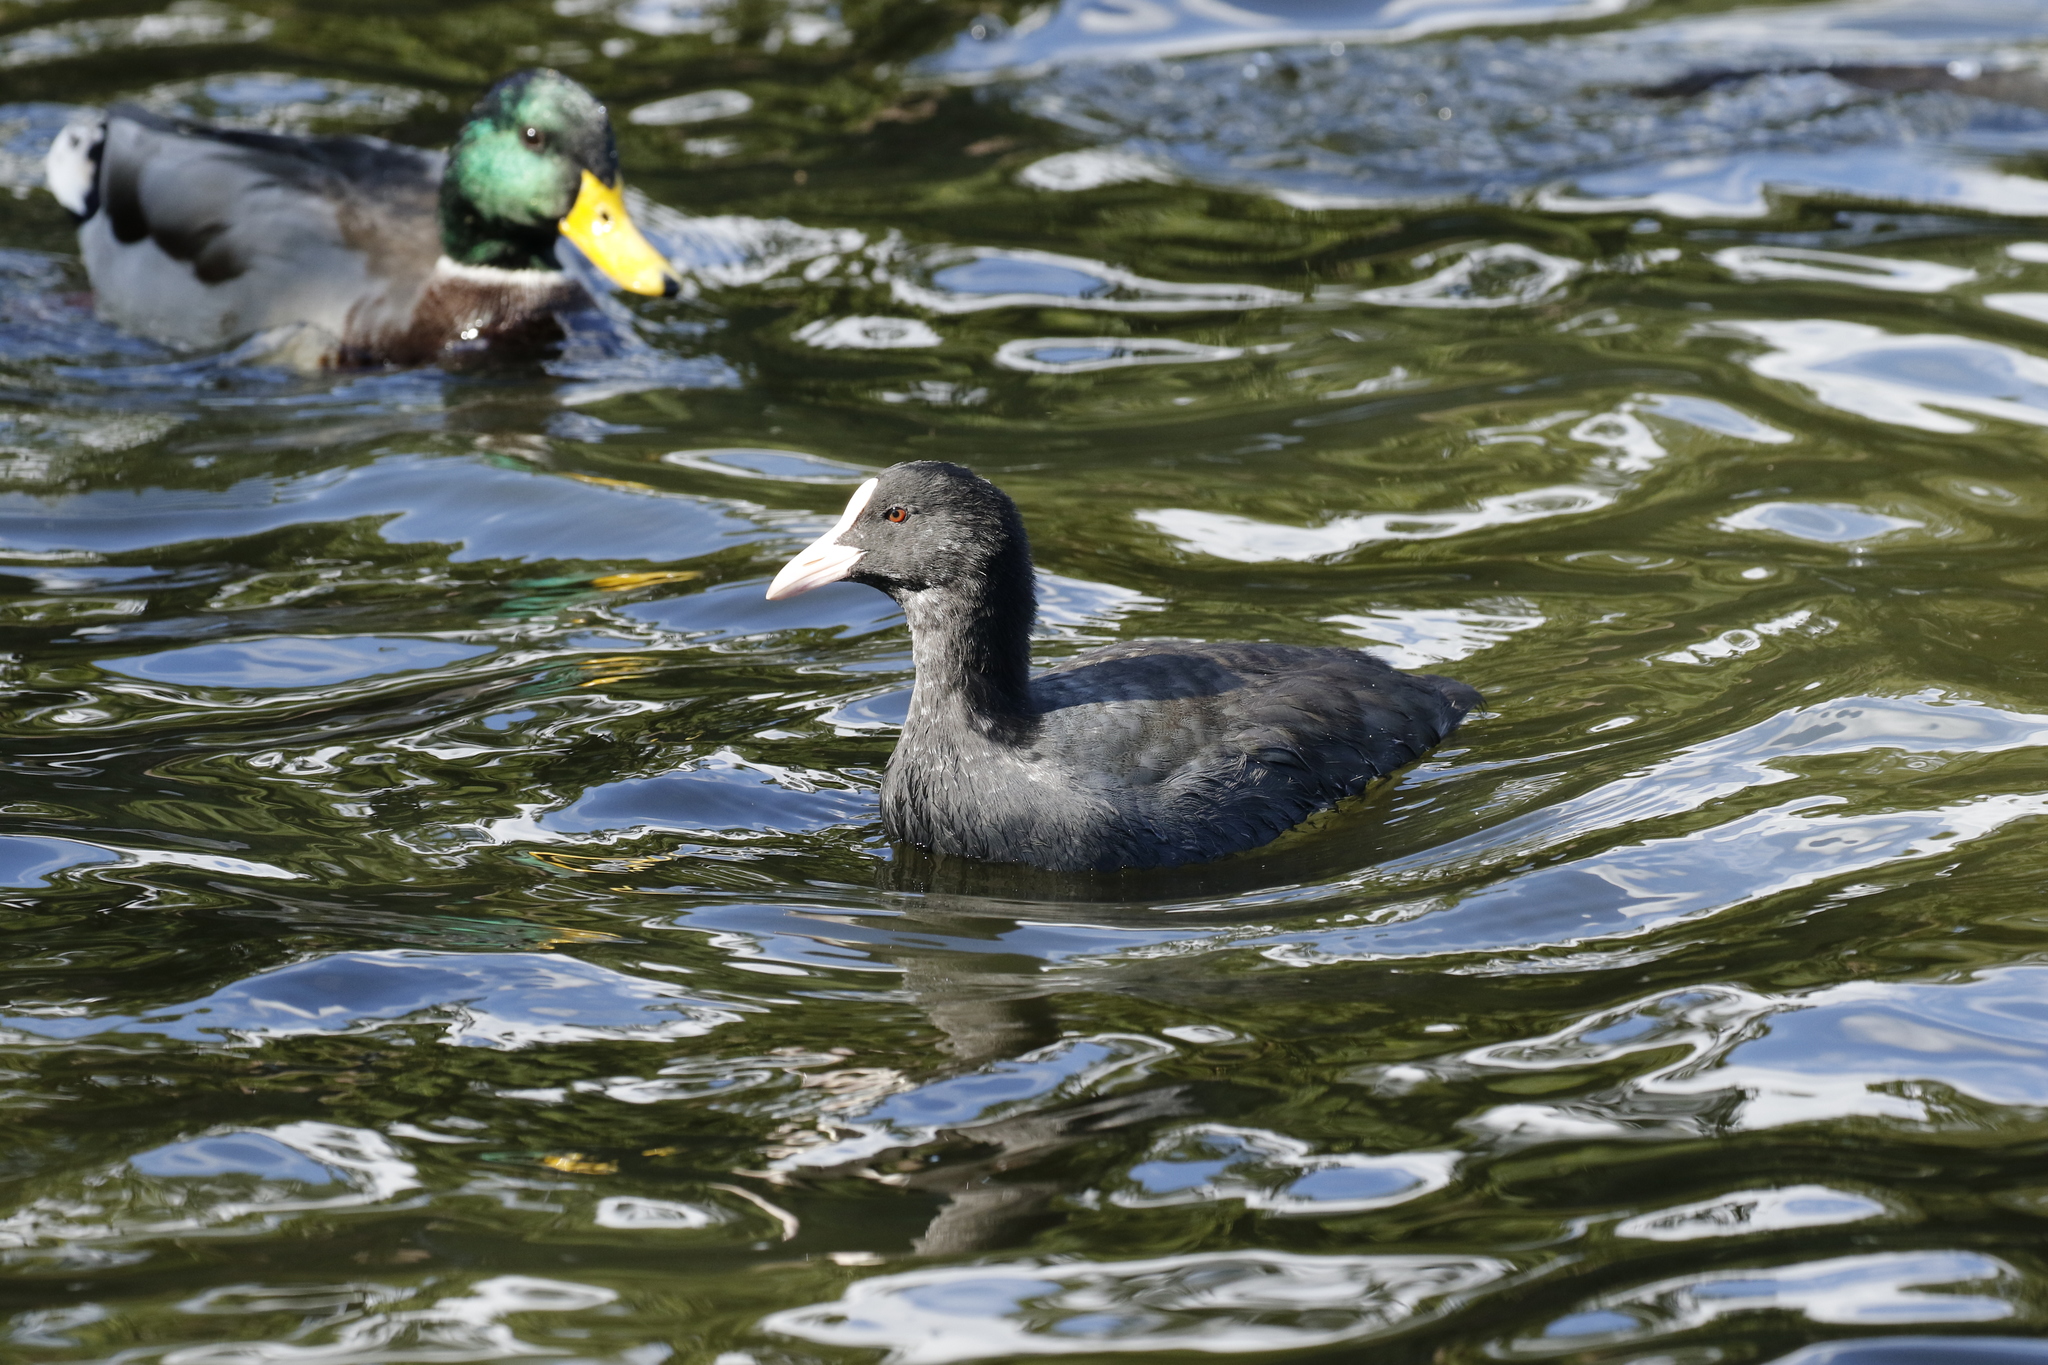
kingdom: Animalia
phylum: Chordata
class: Aves
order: Gruiformes
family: Rallidae
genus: Fulica
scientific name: Fulica atra
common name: Eurasian coot
